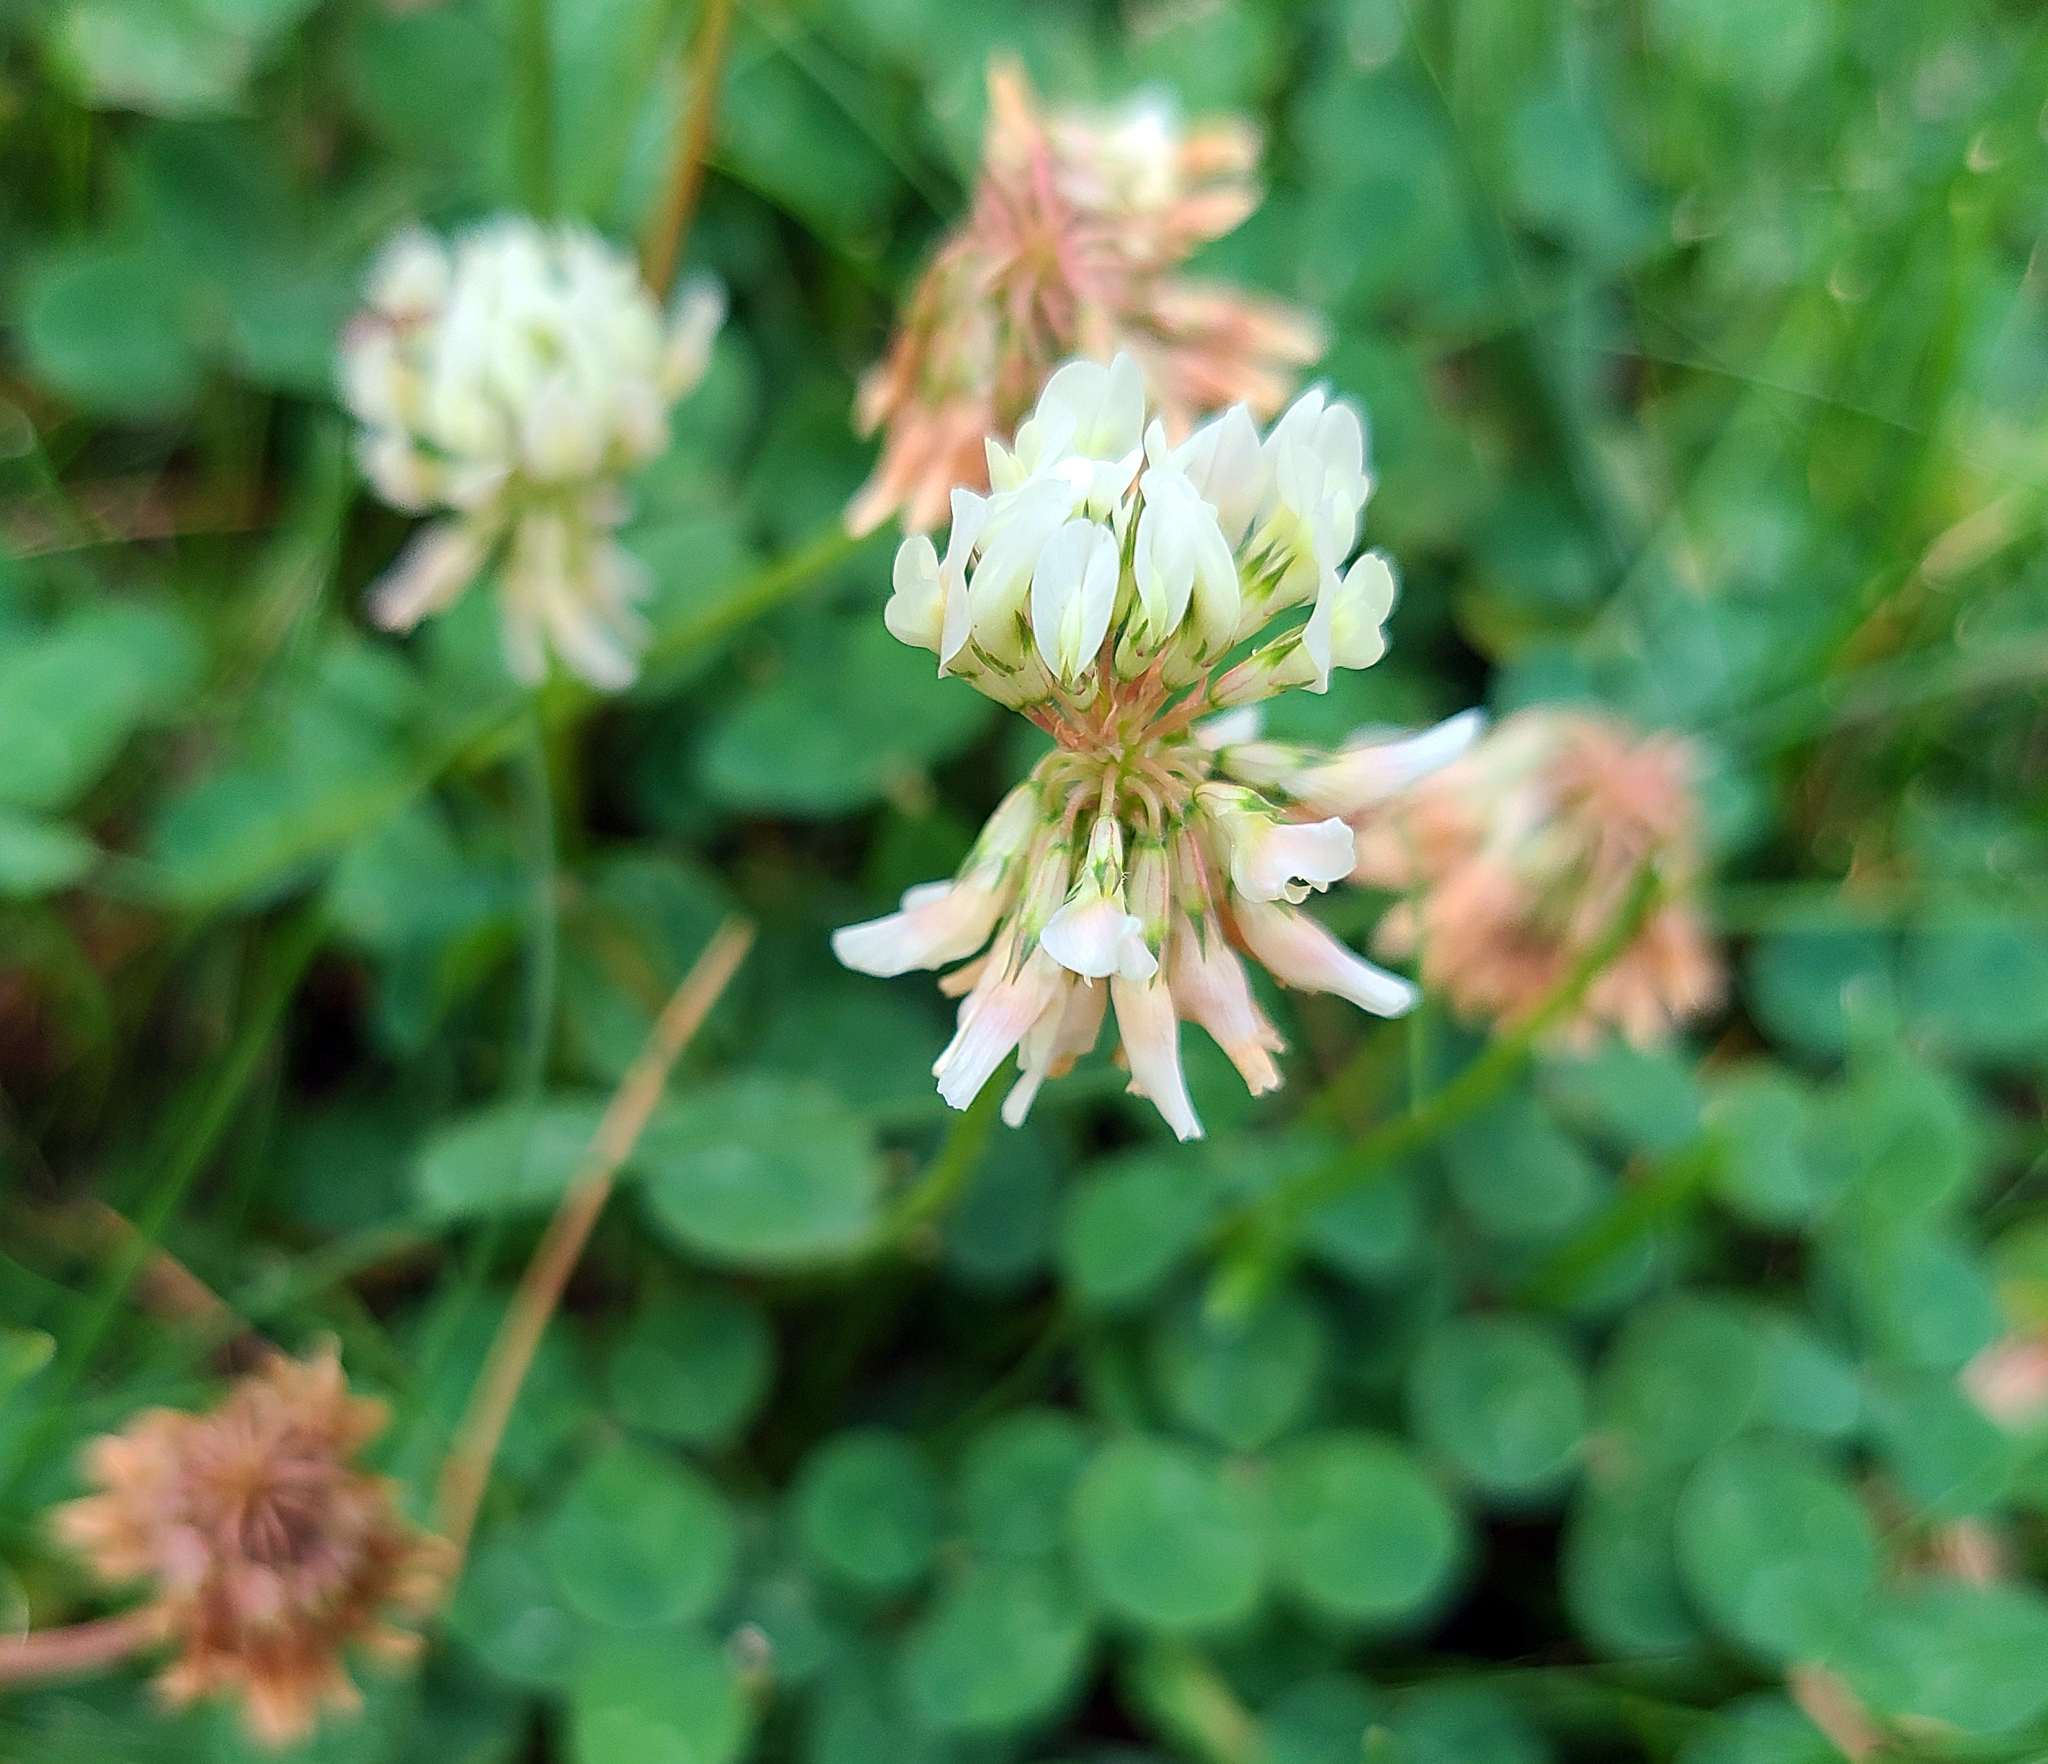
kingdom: Plantae
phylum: Tracheophyta
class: Magnoliopsida
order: Fabales
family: Fabaceae
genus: Trifolium
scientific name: Trifolium repens
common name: White clover
